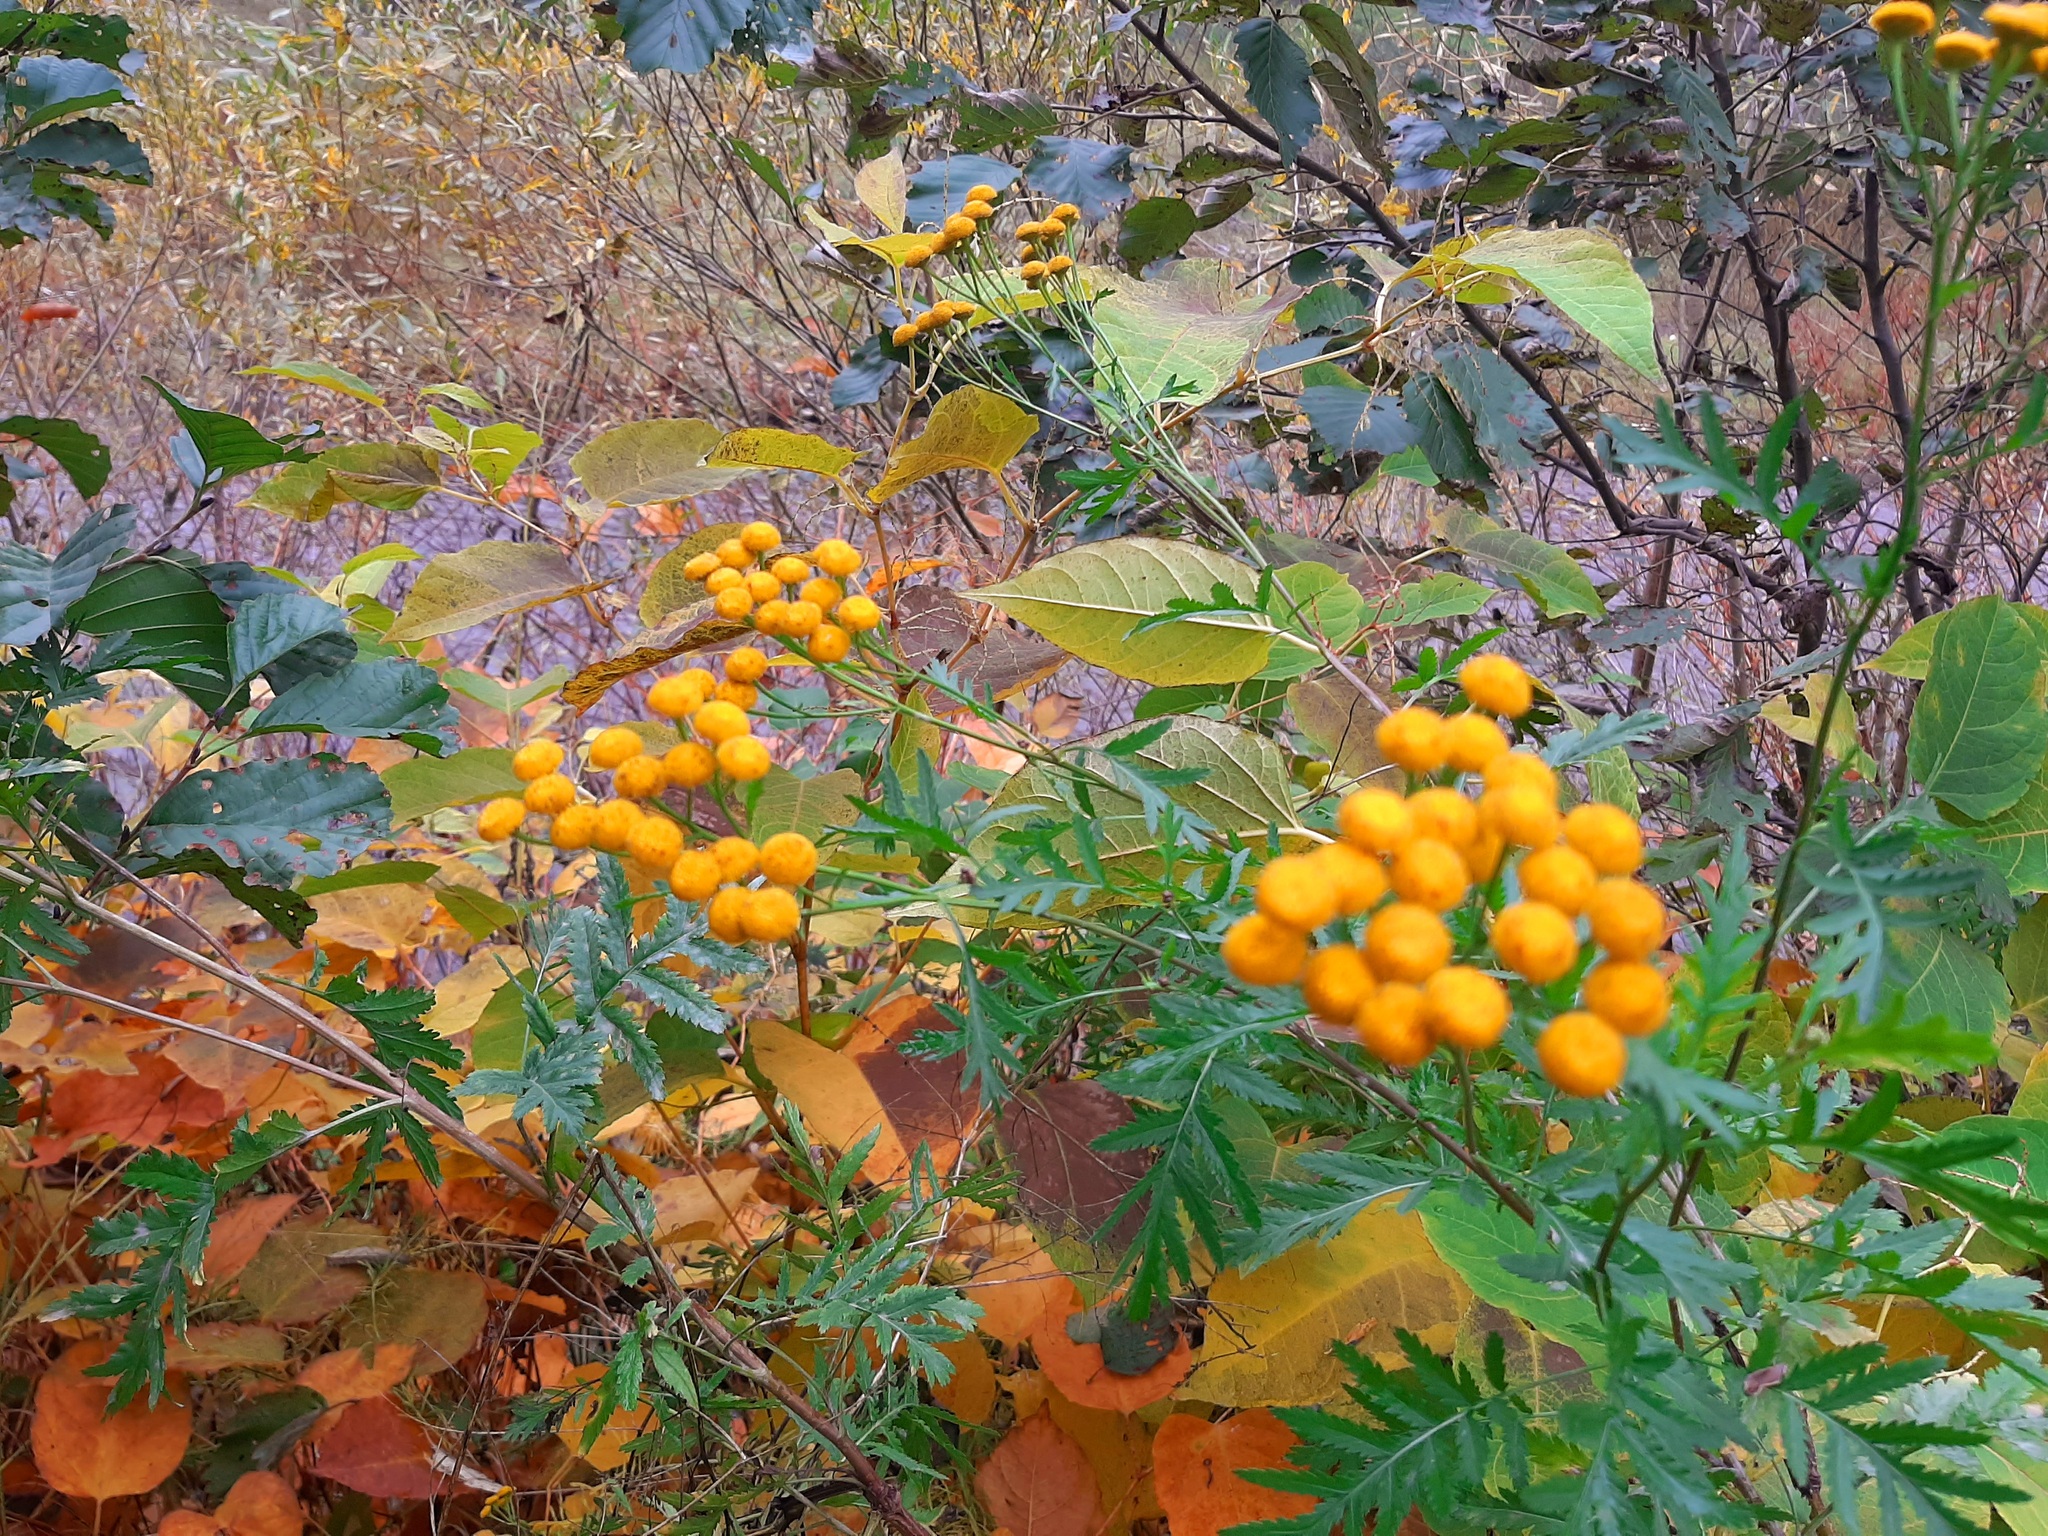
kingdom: Plantae
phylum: Tracheophyta
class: Magnoliopsida
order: Asterales
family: Asteraceae
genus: Tanacetum
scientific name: Tanacetum vulgare
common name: Common tansy
